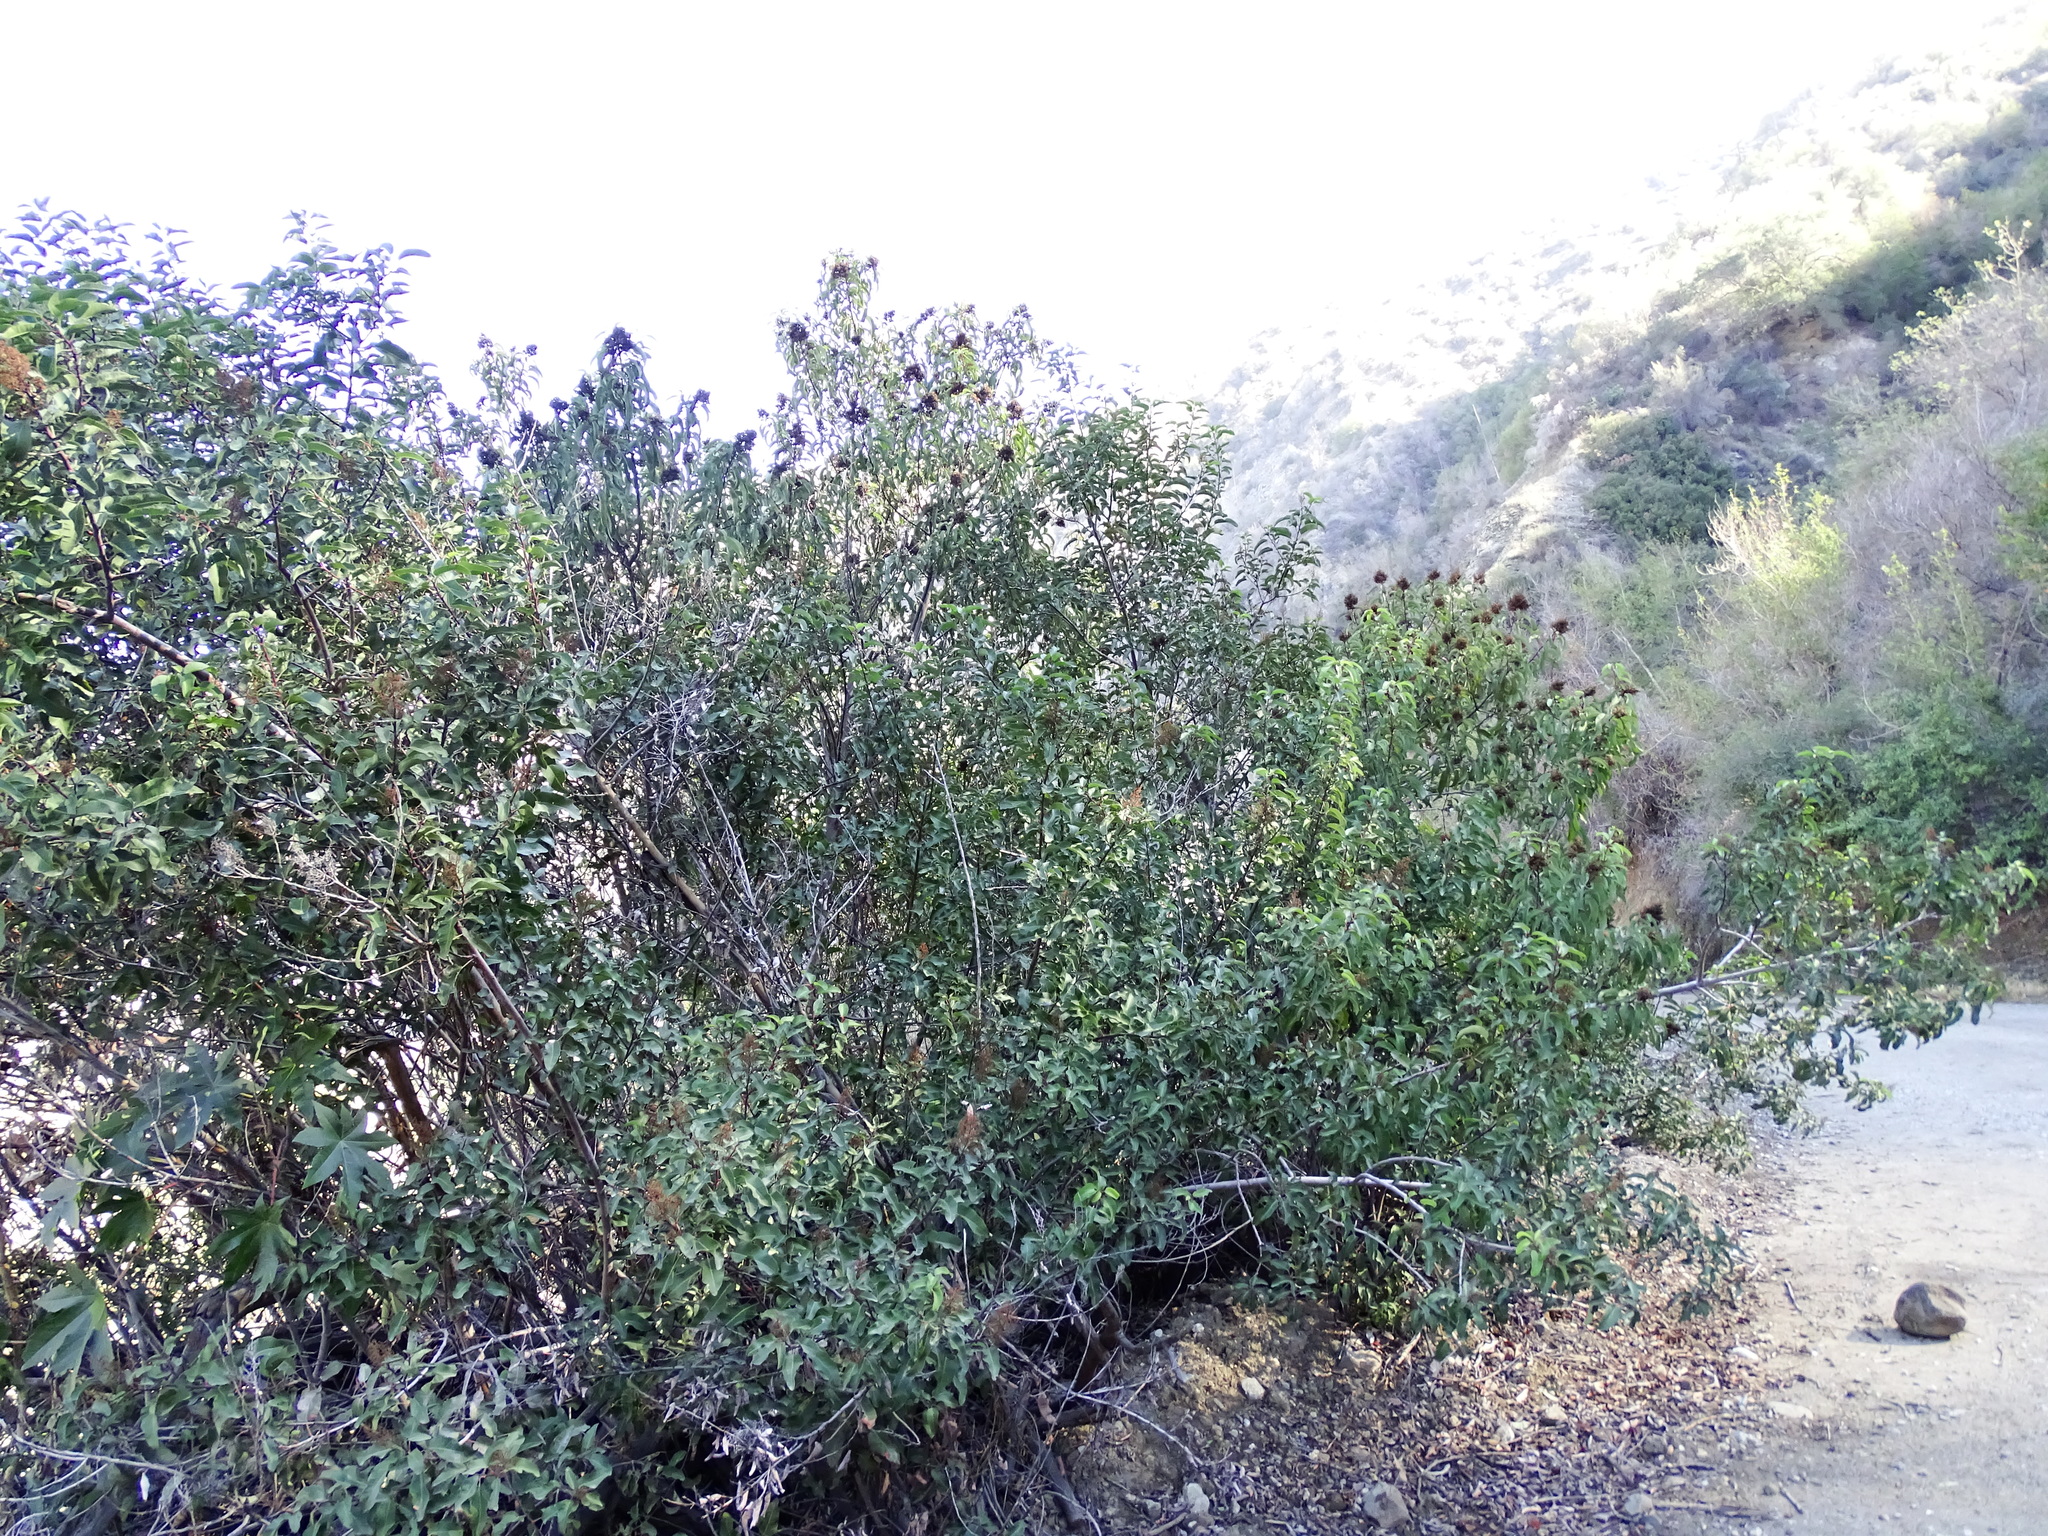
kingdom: Plantae
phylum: Tracheophyta
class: Magnoliopsida
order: Sapindales
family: Anacardiaceae
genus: Malosma
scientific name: Malosma laurina
